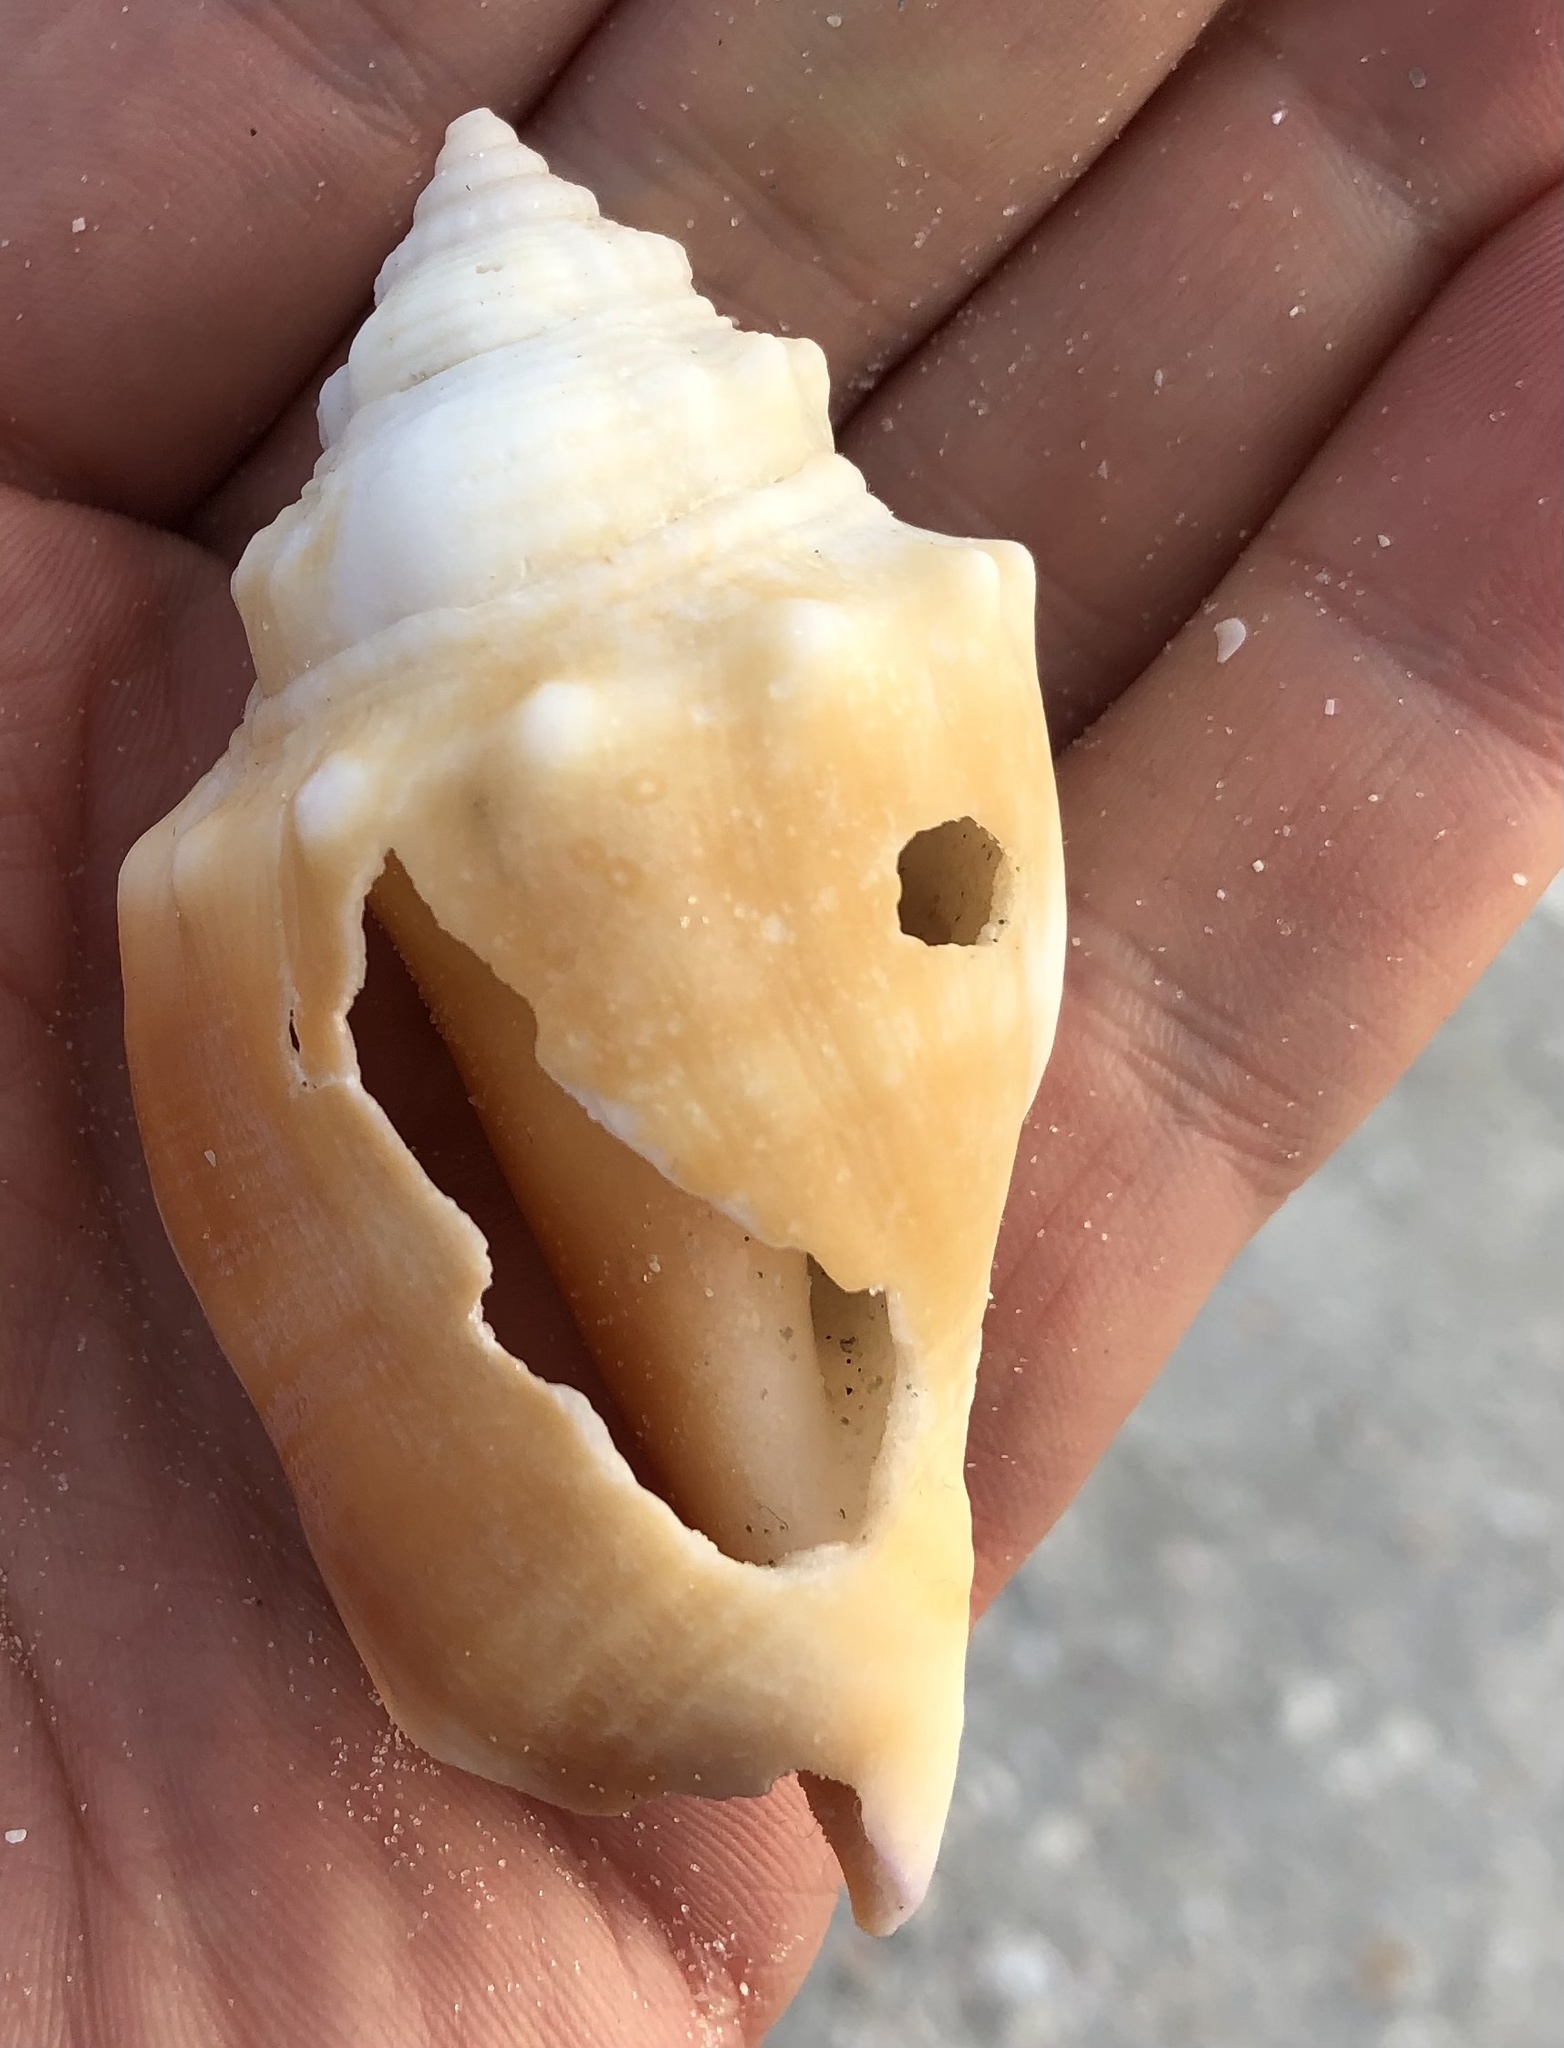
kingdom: Animalia
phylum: Mollusca
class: Gastropoda
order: Littorinimorpha
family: Strombidae
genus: Strombus
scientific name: Strombus alatus
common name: Florida fighting conch
